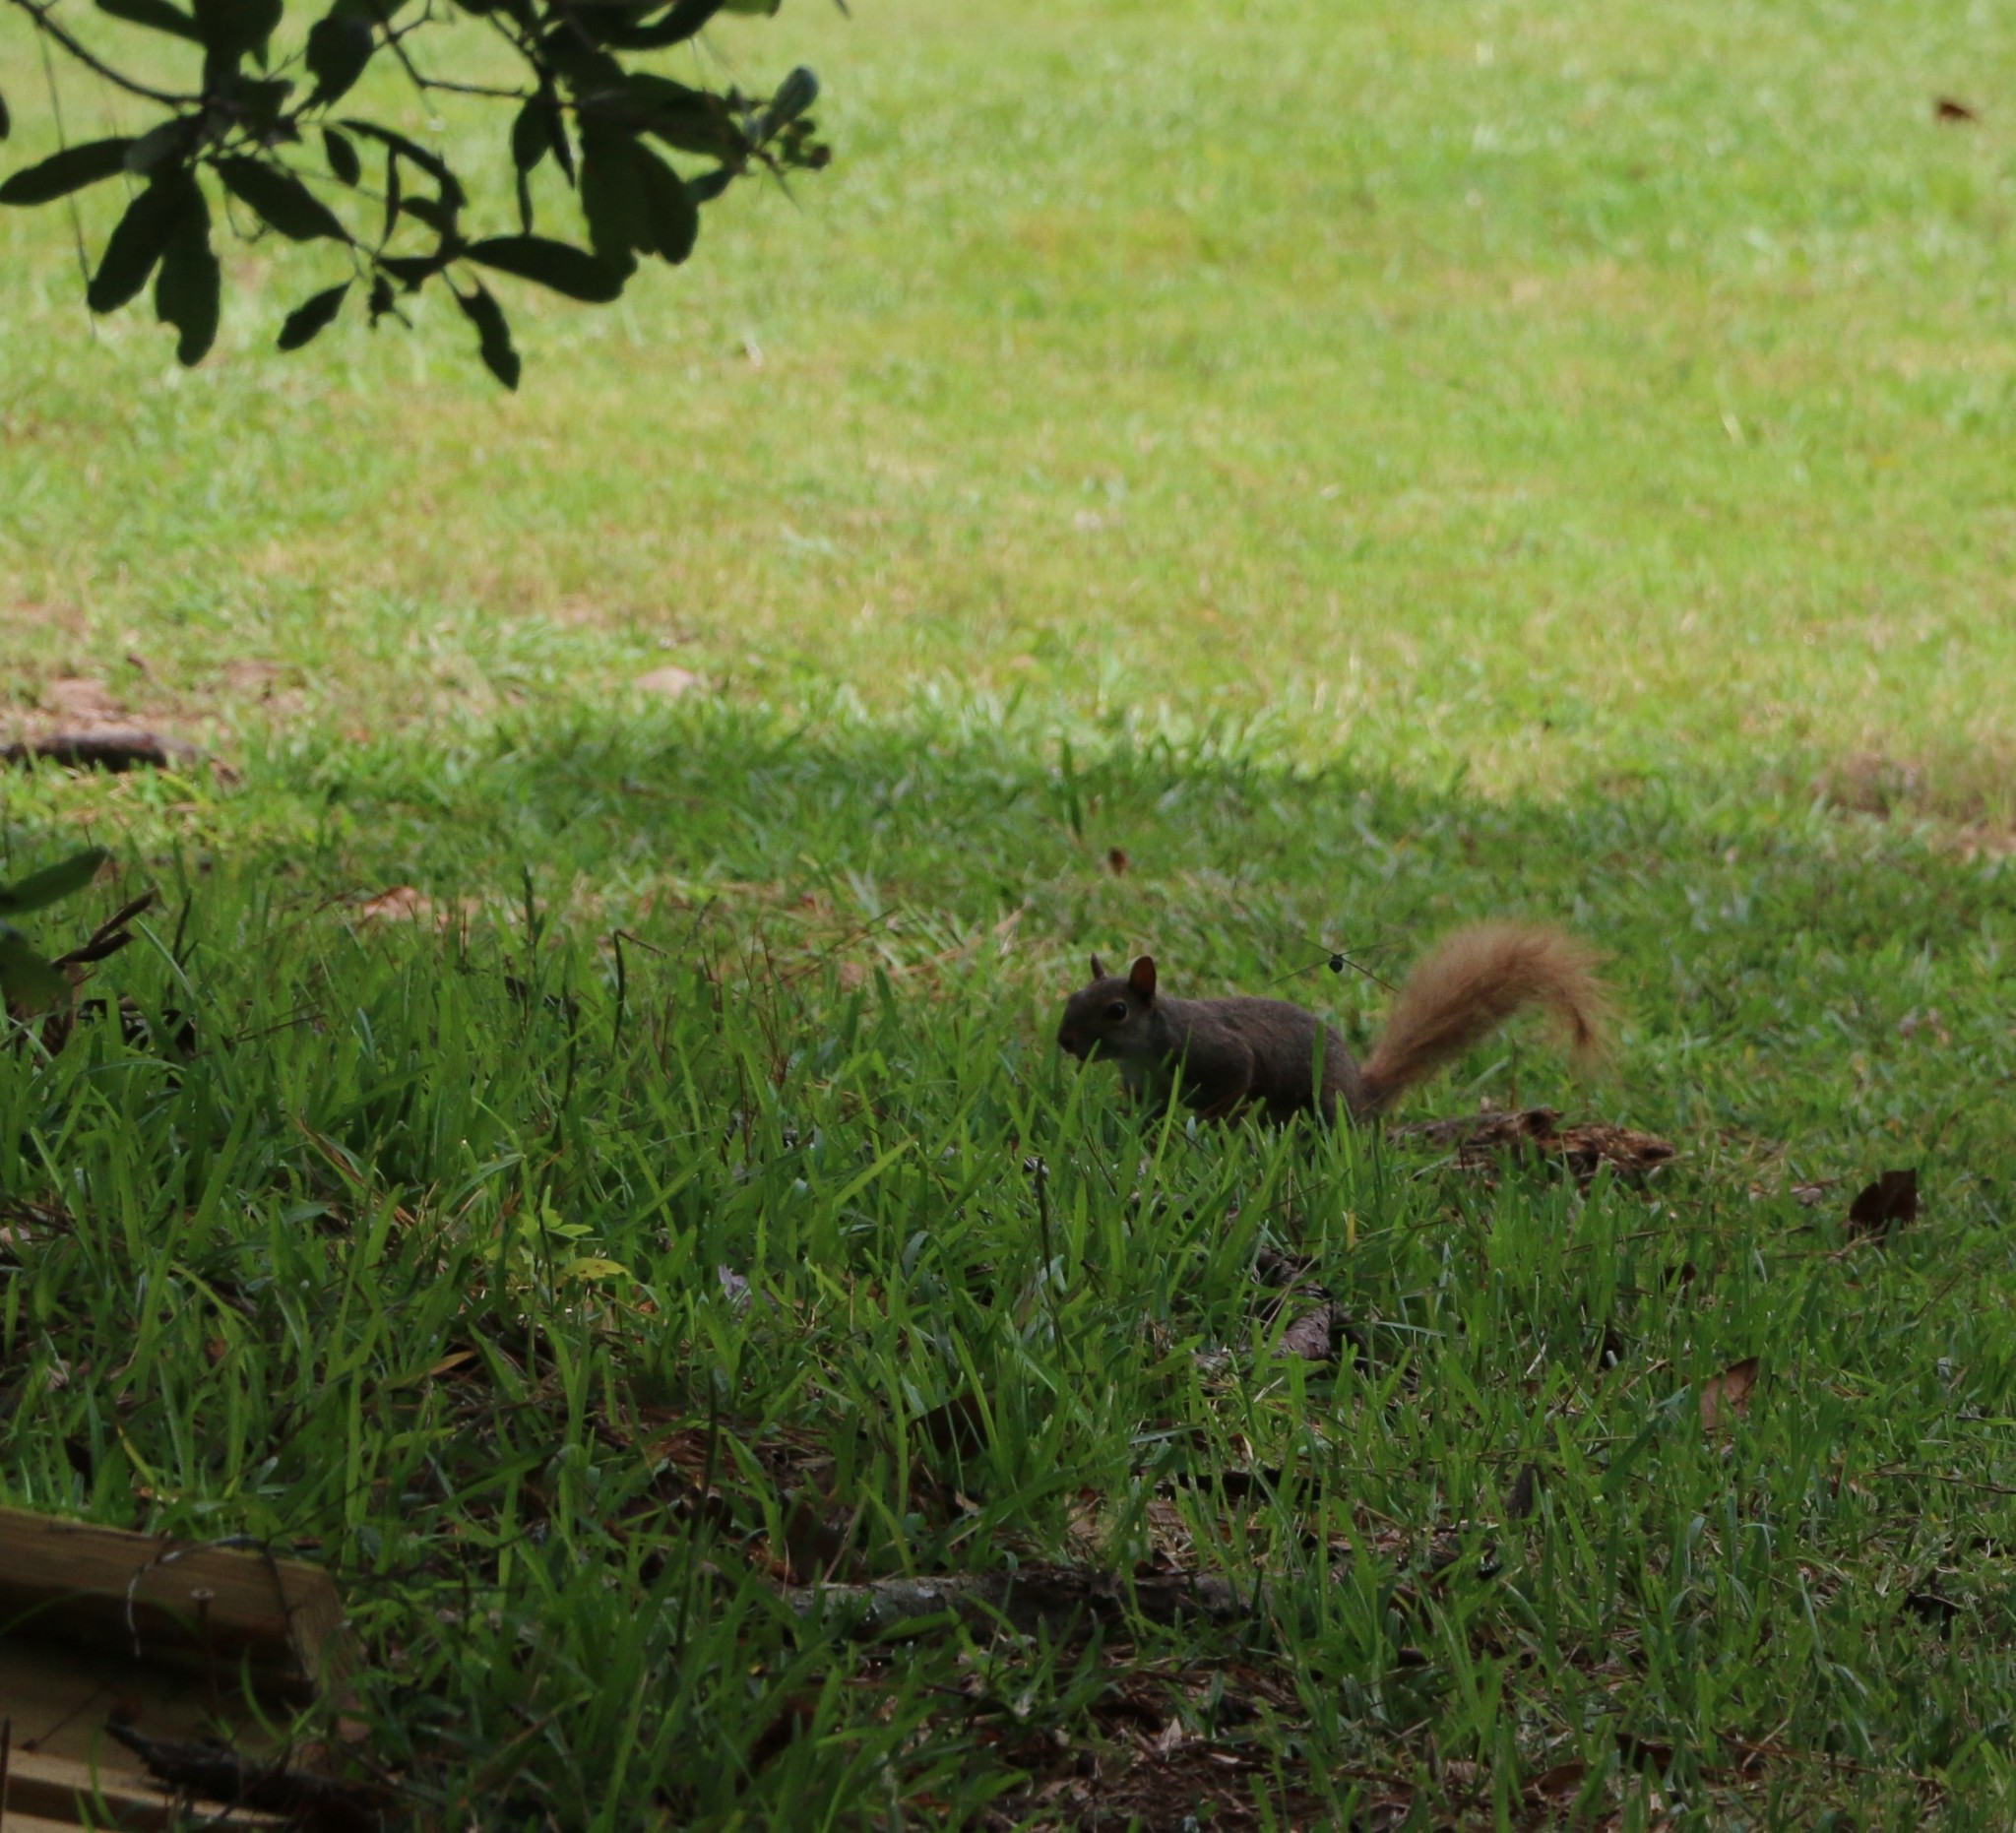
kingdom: Animalia
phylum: Chordata
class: Mammalia
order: Rodentia
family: Sciuridae
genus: Sciurus
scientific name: Sciurus carolinensis
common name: Eastern gray squirrel
